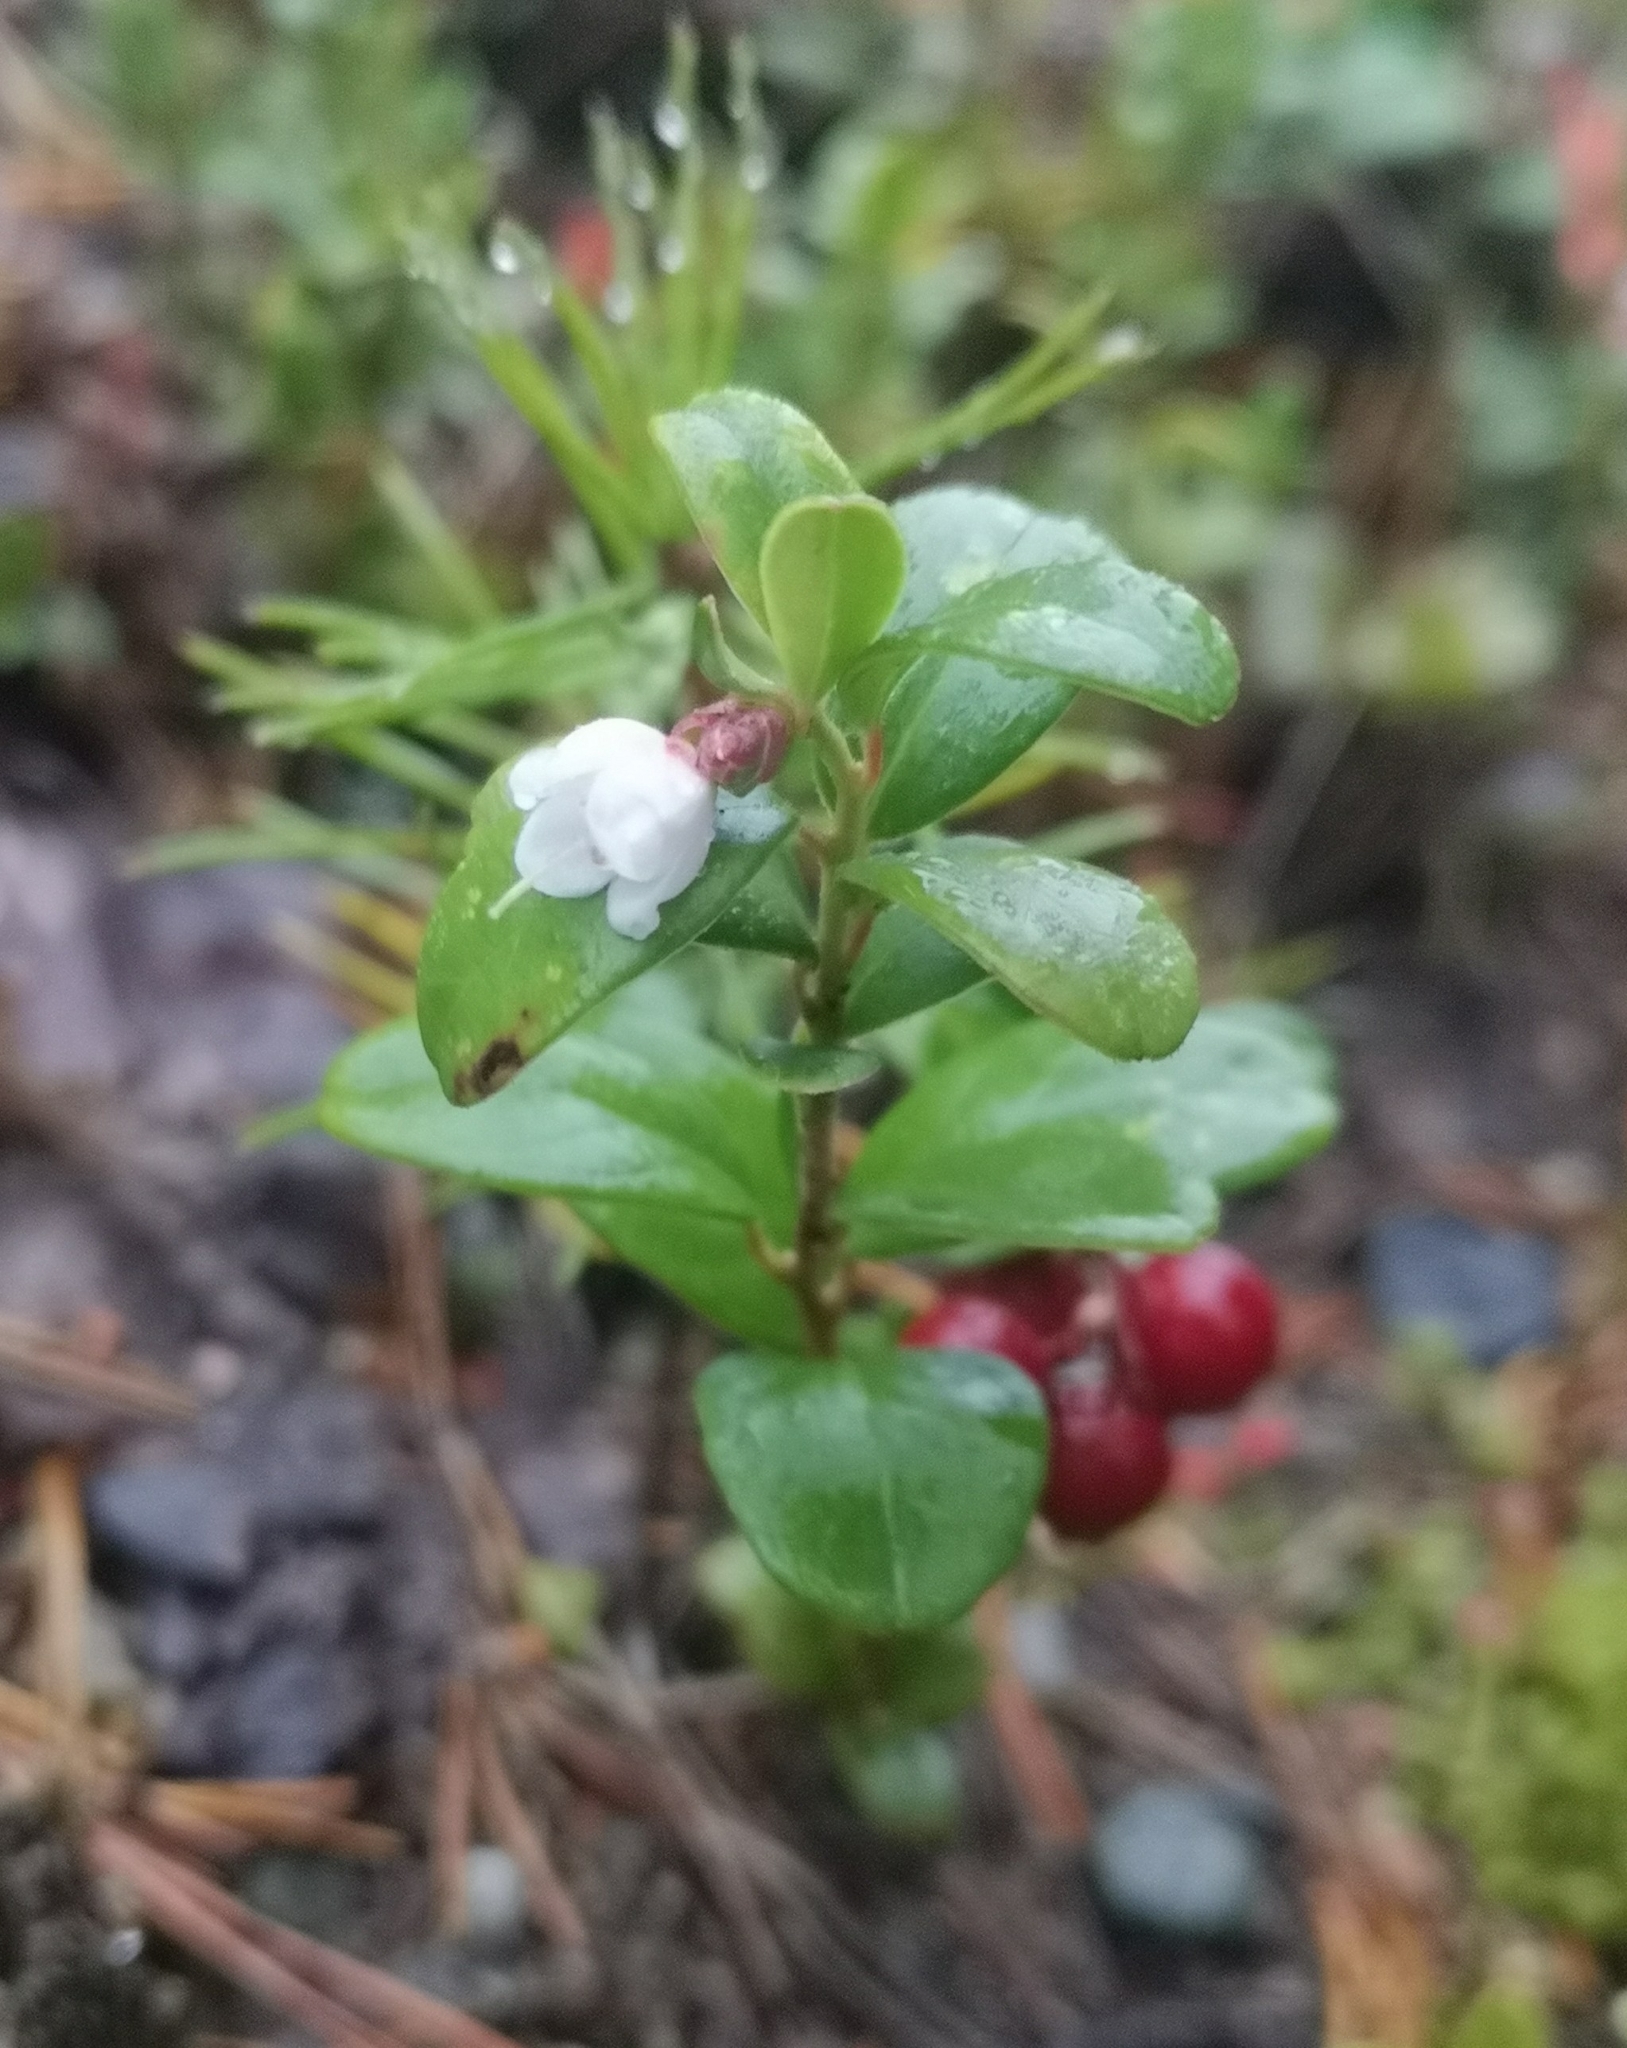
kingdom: Plantae
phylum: Tracheophyta
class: Magnoliopsida
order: Ericales
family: Ericaceae
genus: Vaccinium
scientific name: Vaccinium vitis-idaea
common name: Cowberry
